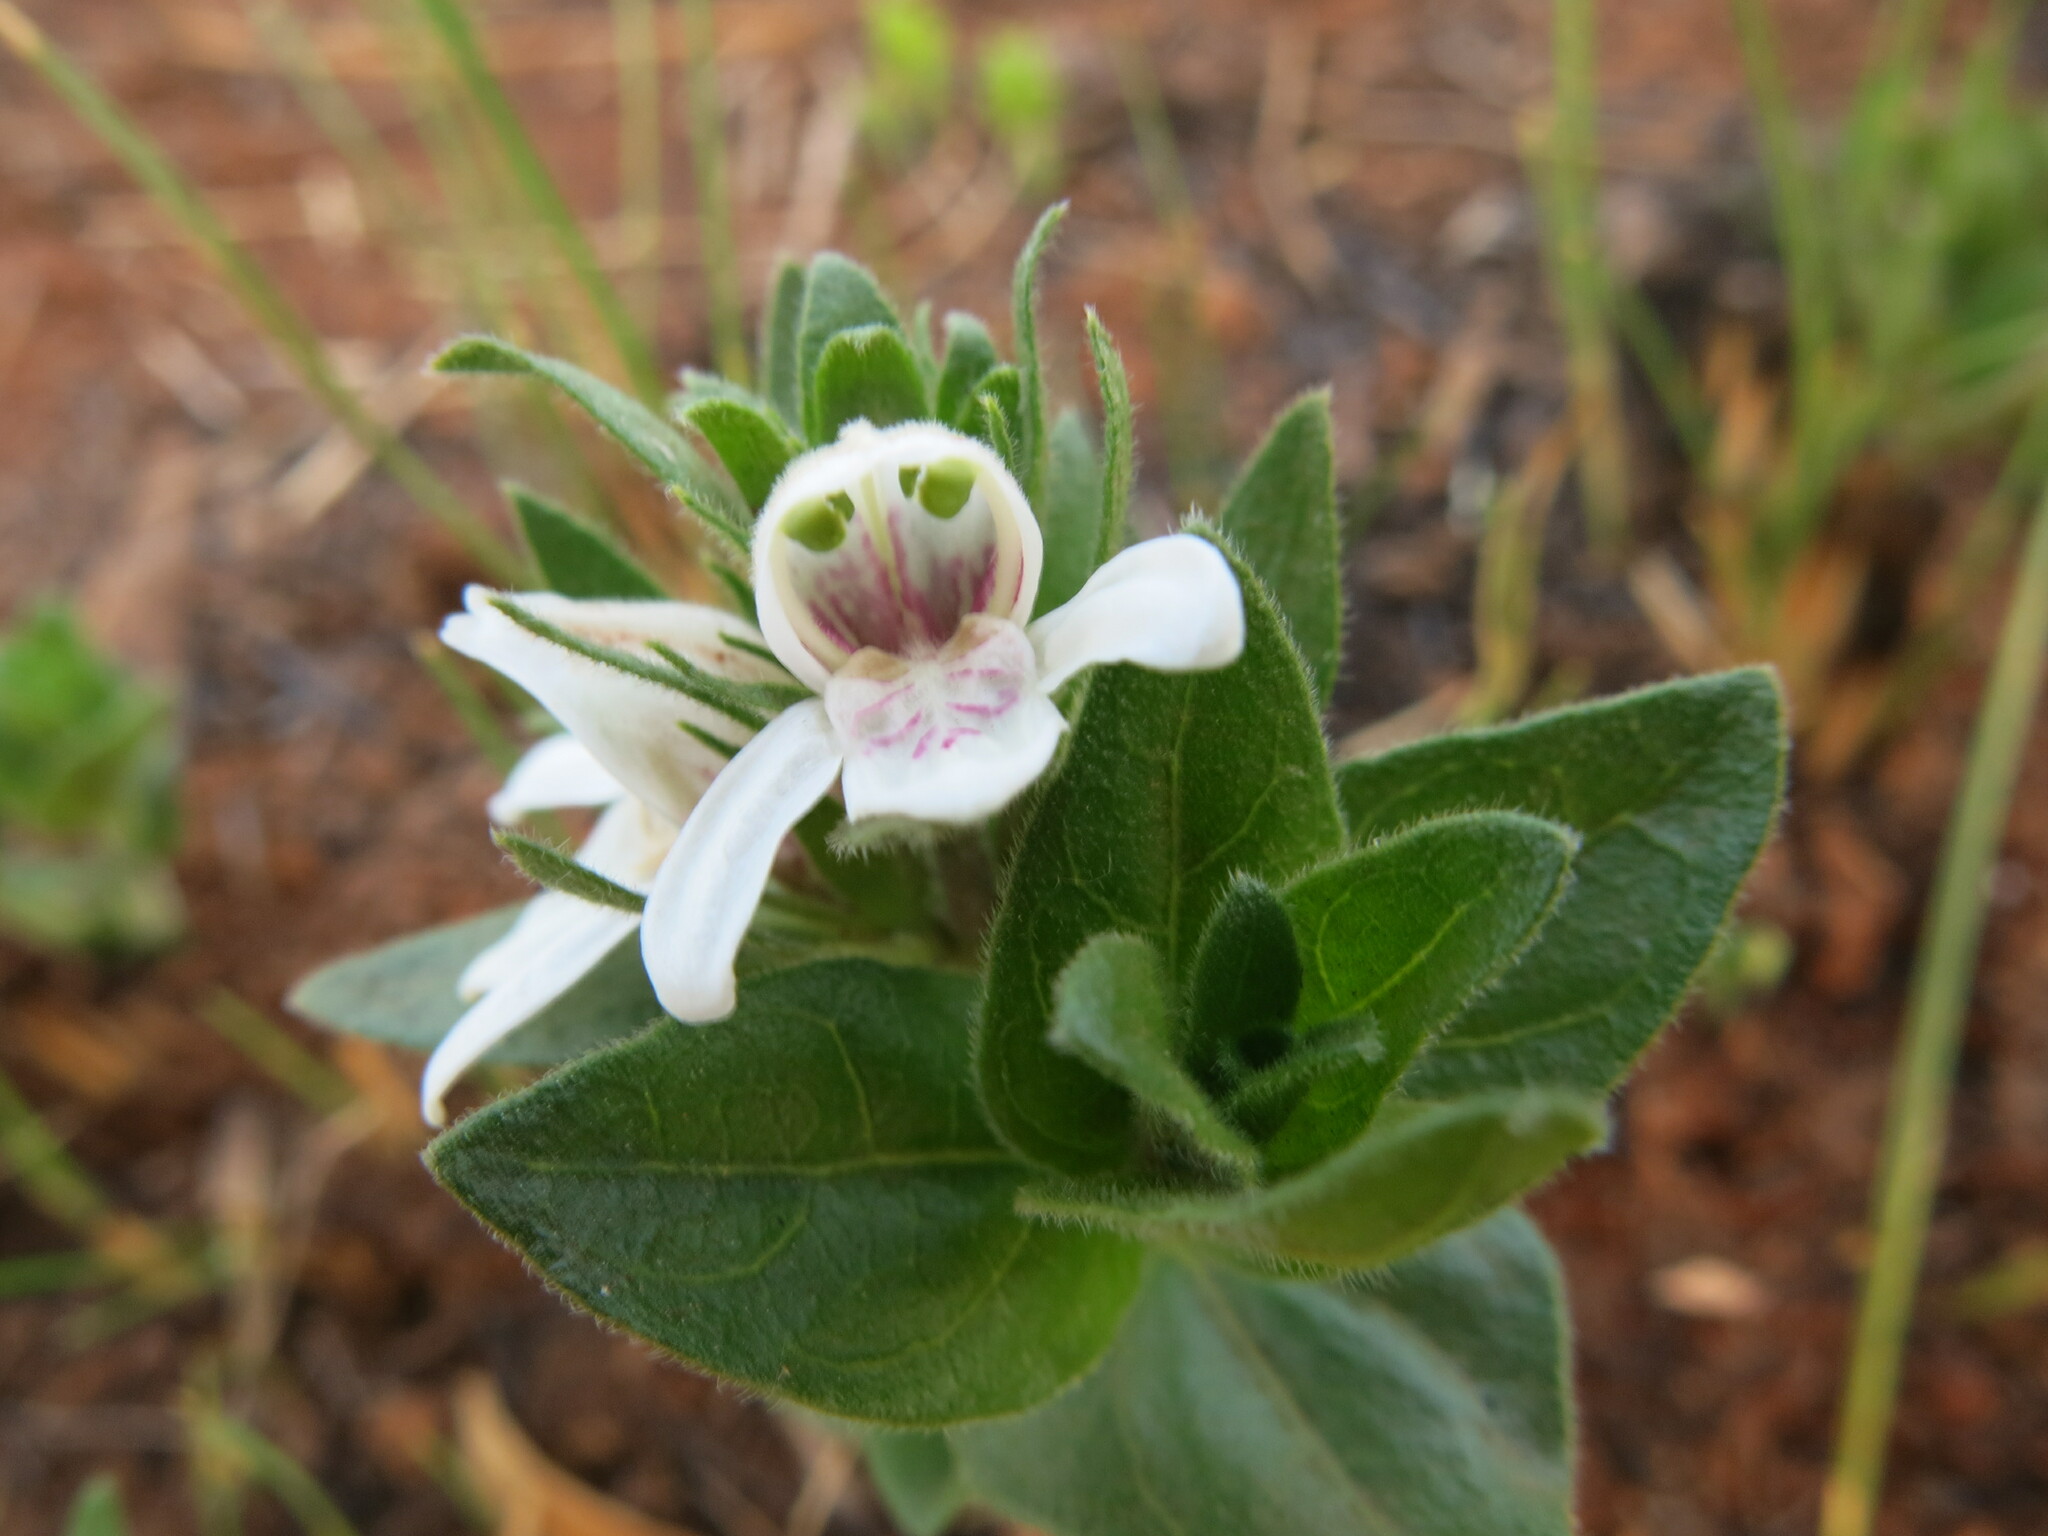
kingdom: Plantae
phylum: Tracheophyta
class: Magnoliopsida
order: Lamiales
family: Acanthaceae
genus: Justicia
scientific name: Justicia andromeda
